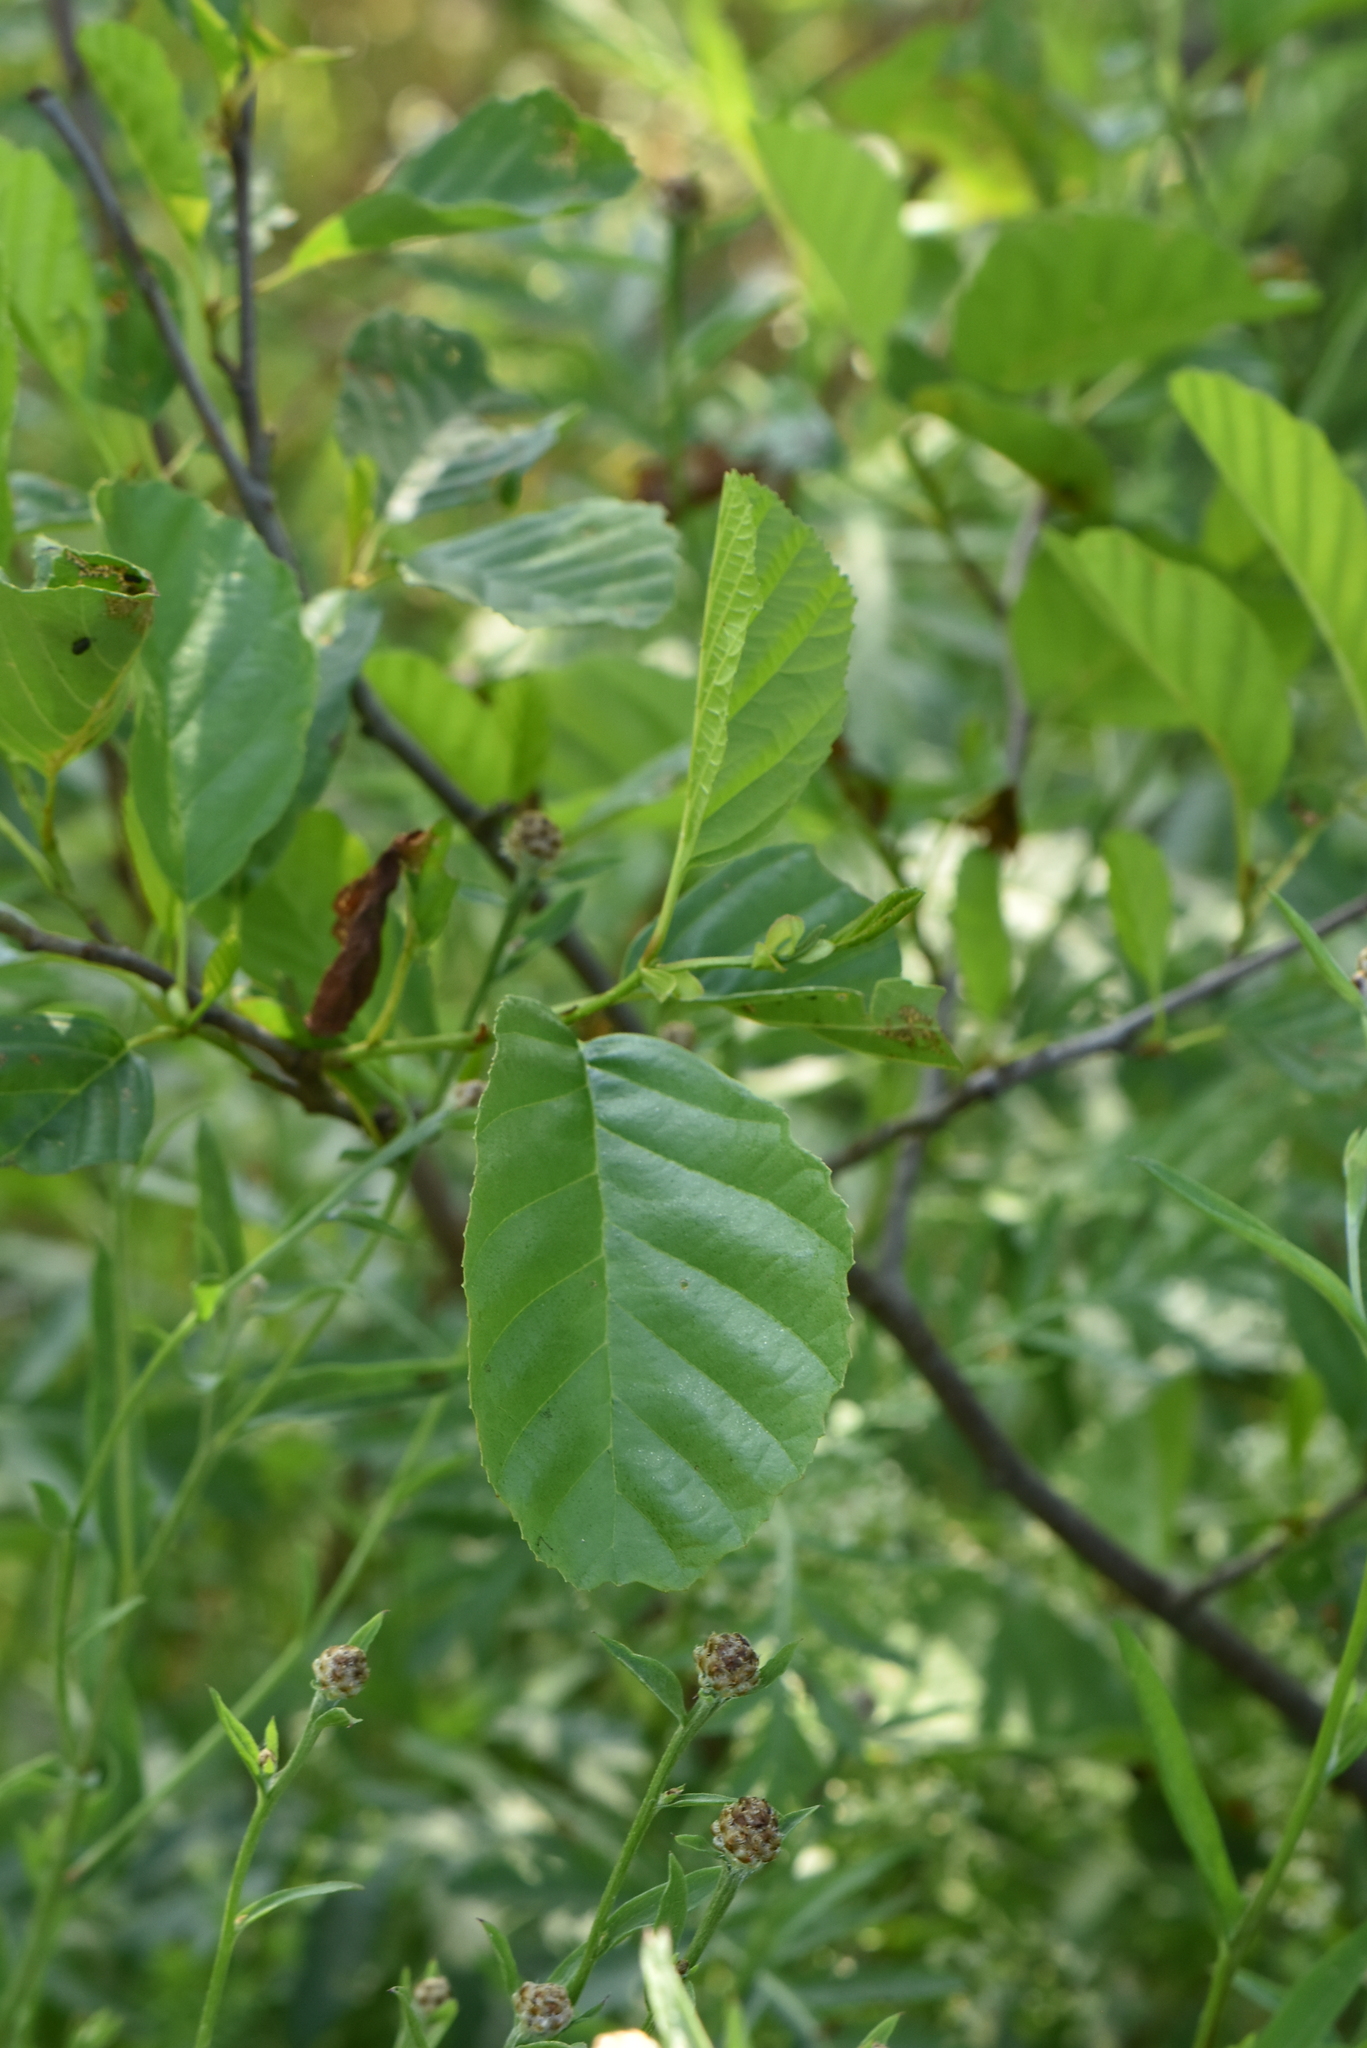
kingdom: Plantae
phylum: Tracheophyta
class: Magnoliopsida
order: Fagales
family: Betulaceae
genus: Alnus
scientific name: Alnus glutinosa
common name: Black alder
